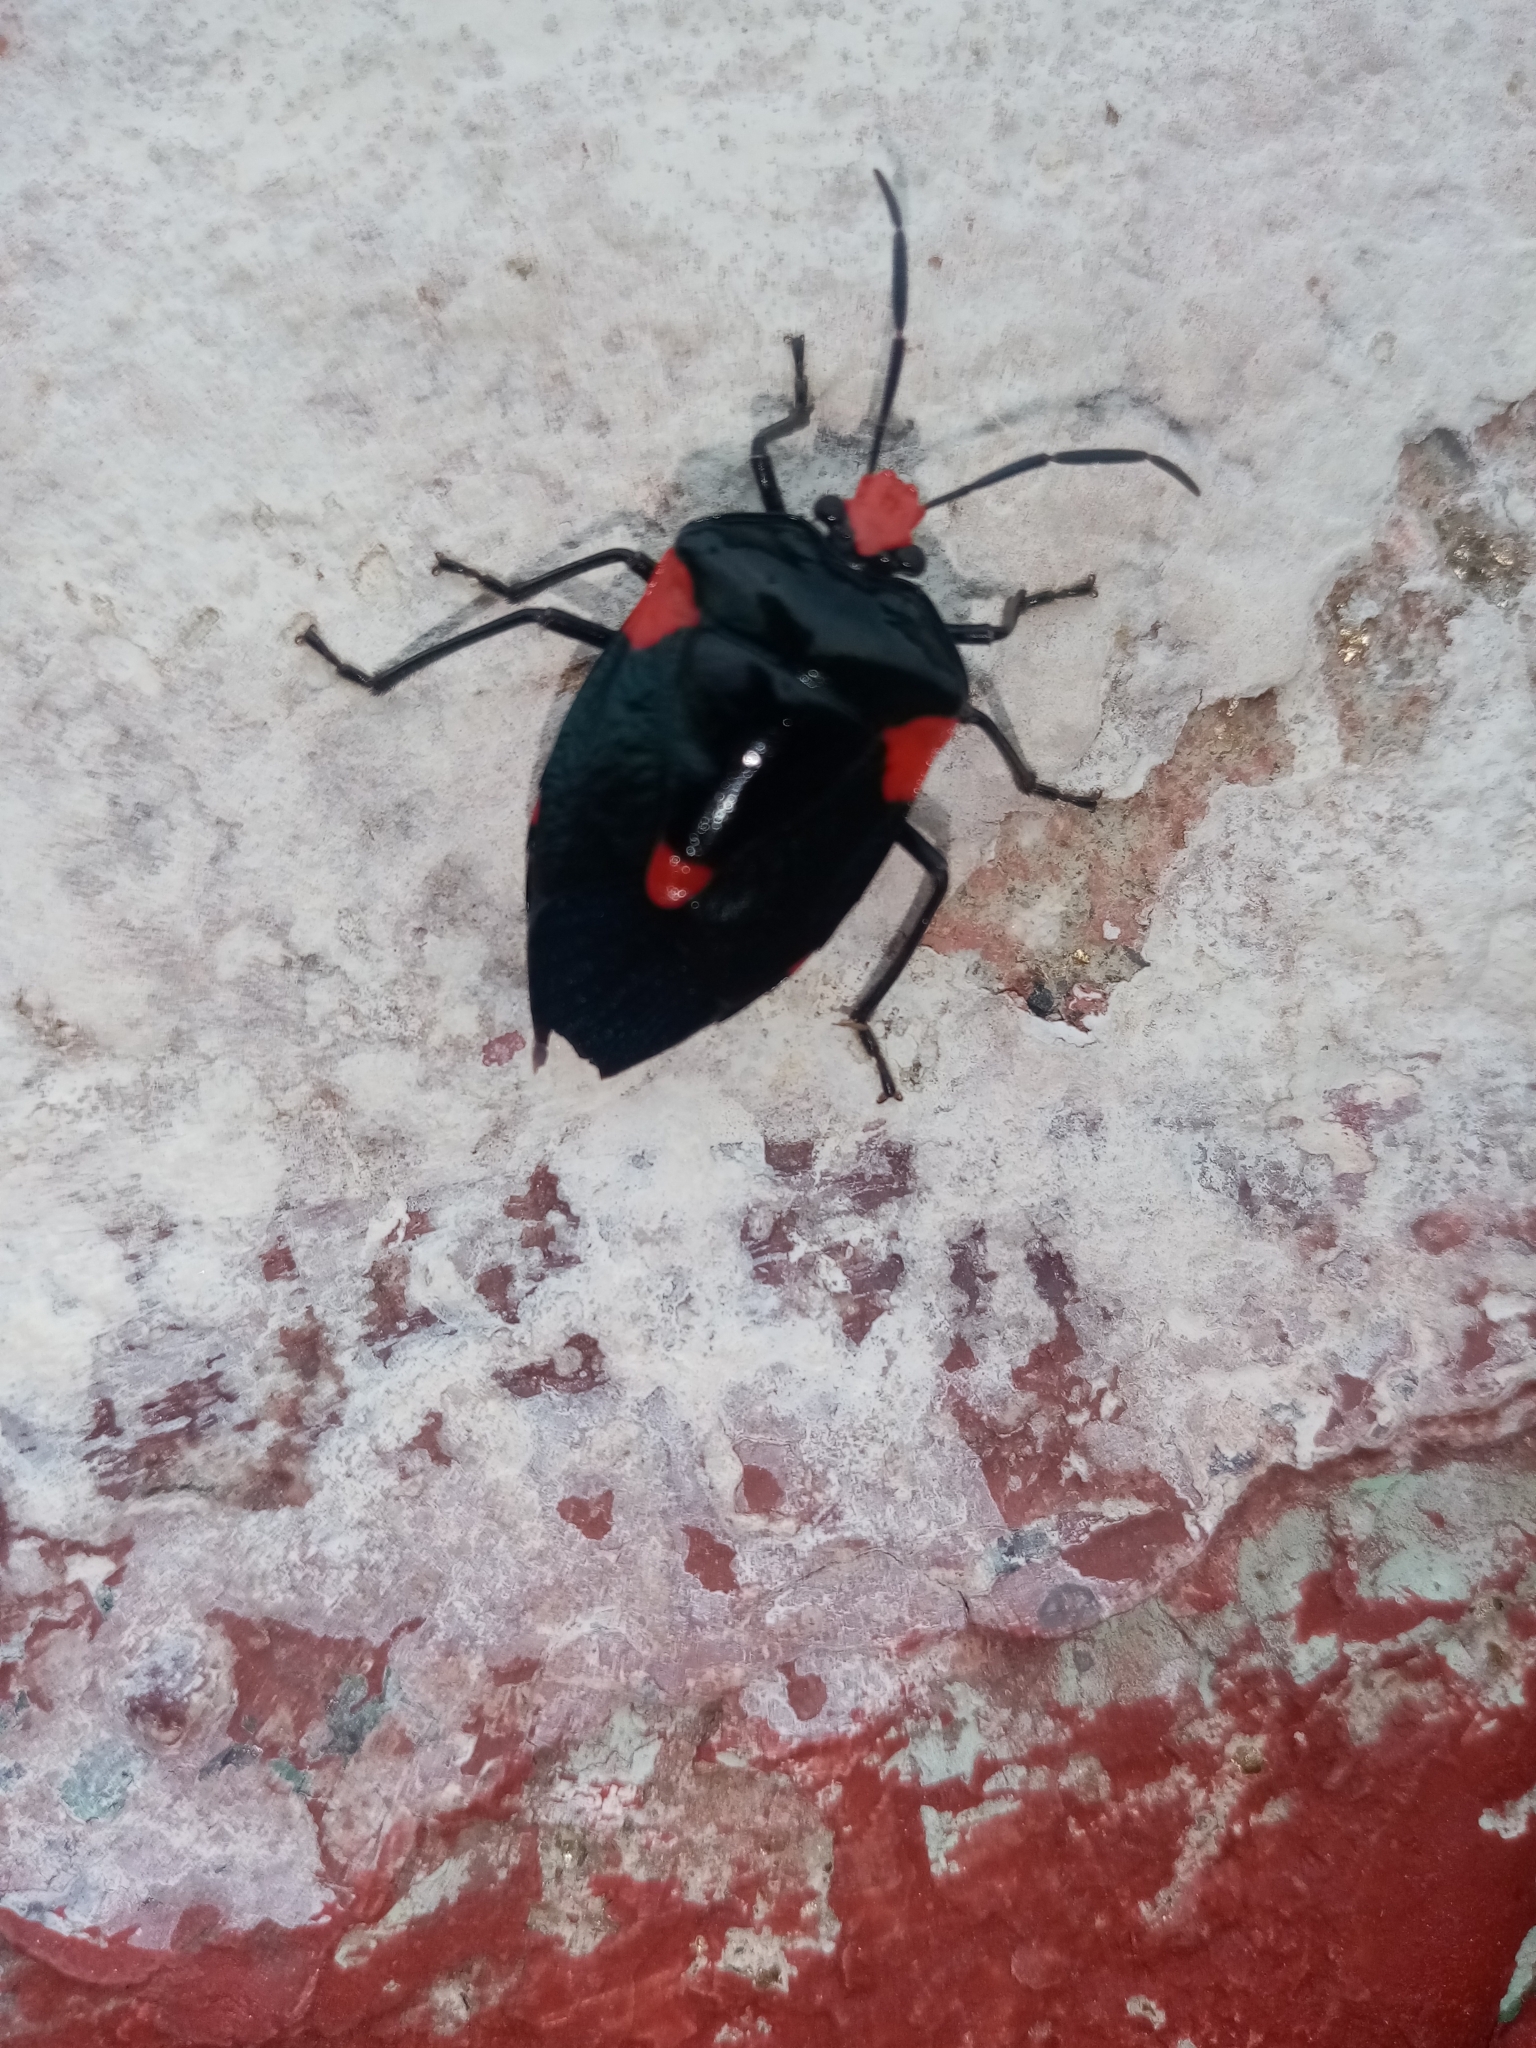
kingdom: Animalia
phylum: Arthropoda
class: Insecta
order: Hemiptera
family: Pentatomidae
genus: Arocera
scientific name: Arocera elongata
